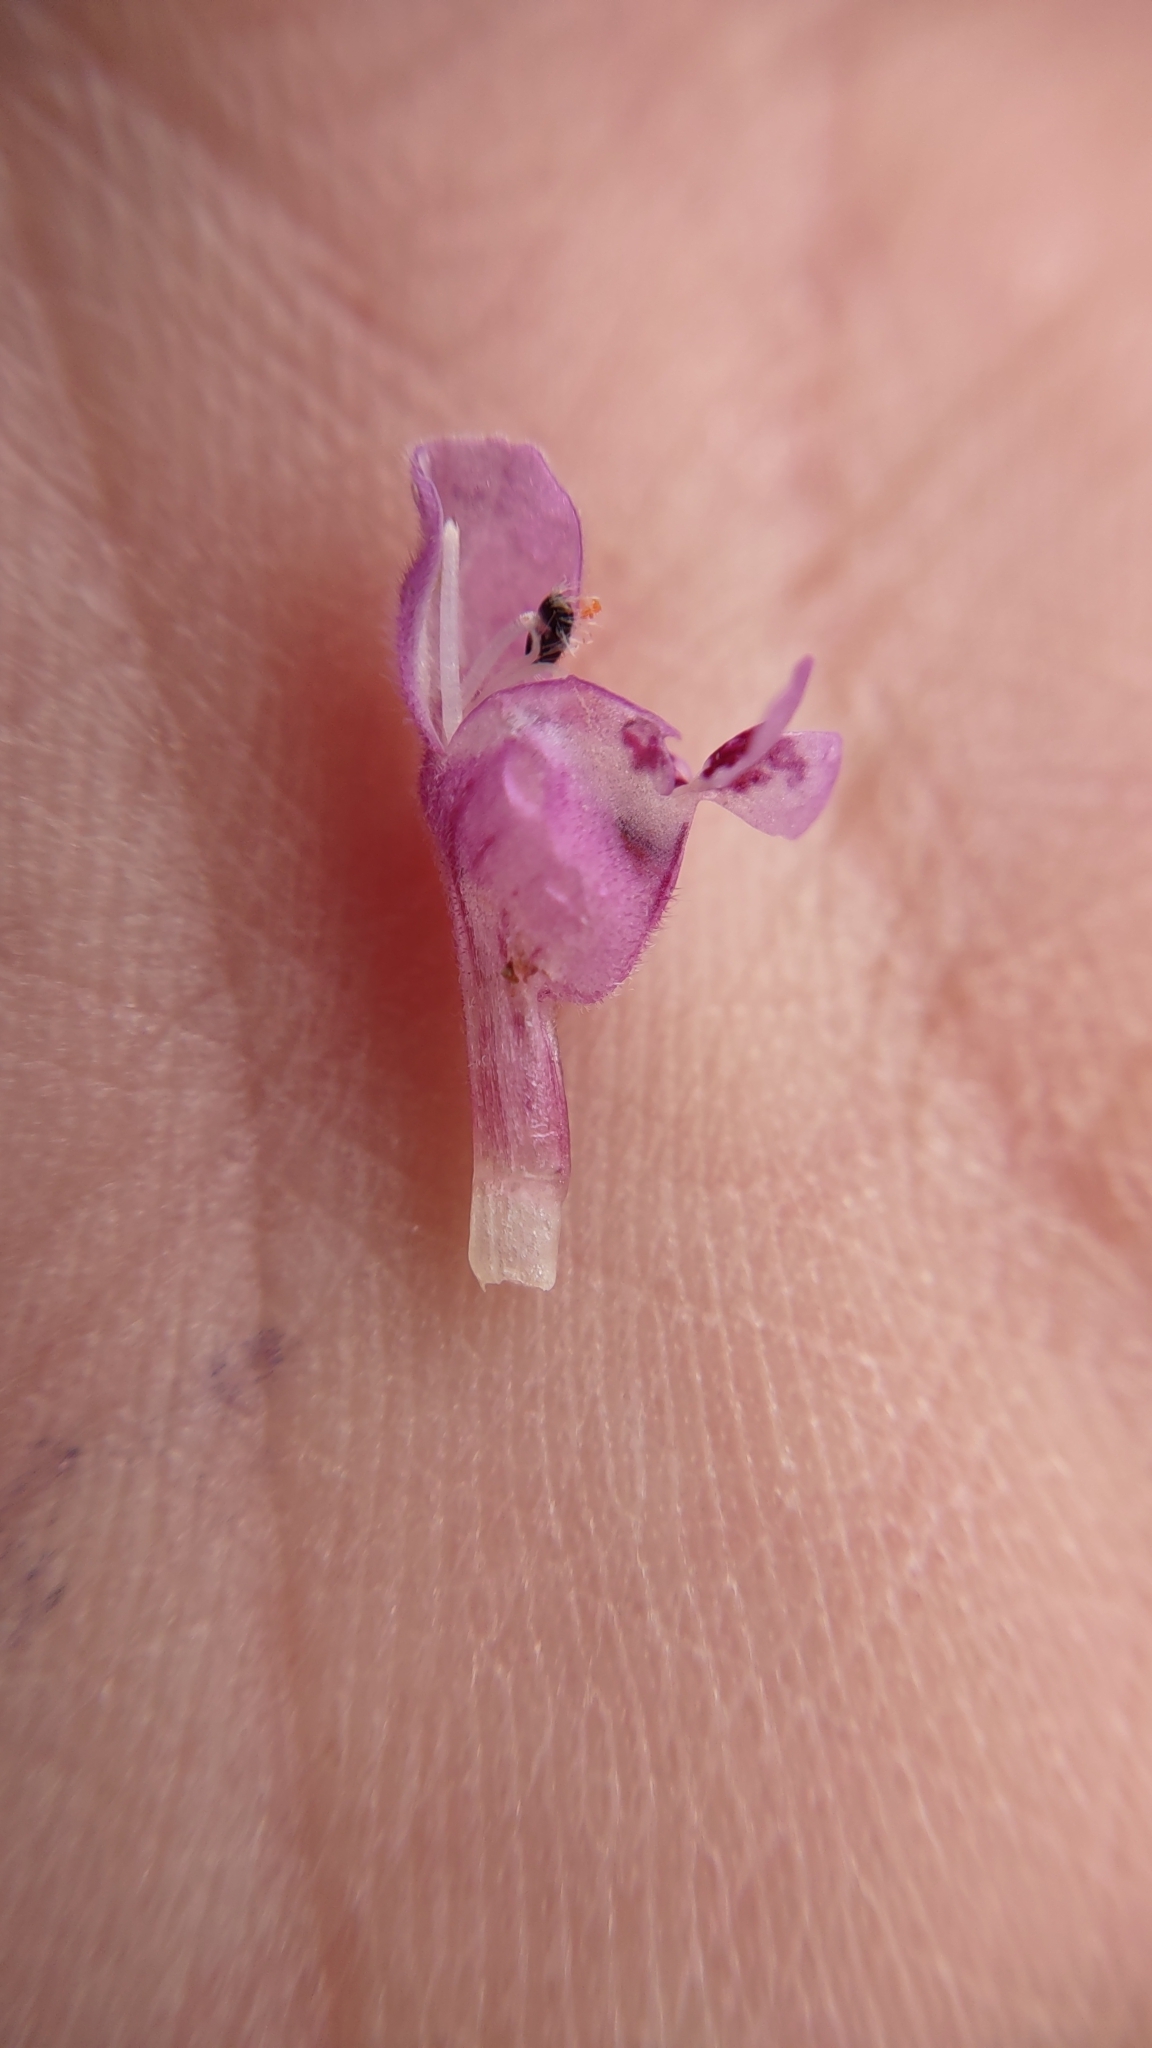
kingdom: Plantae
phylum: Tracheophyta
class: Magnoliopsida
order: Lamiales
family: Lamiaceae
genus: Lamium
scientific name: Lamium purpureum
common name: Red dead-nettle
